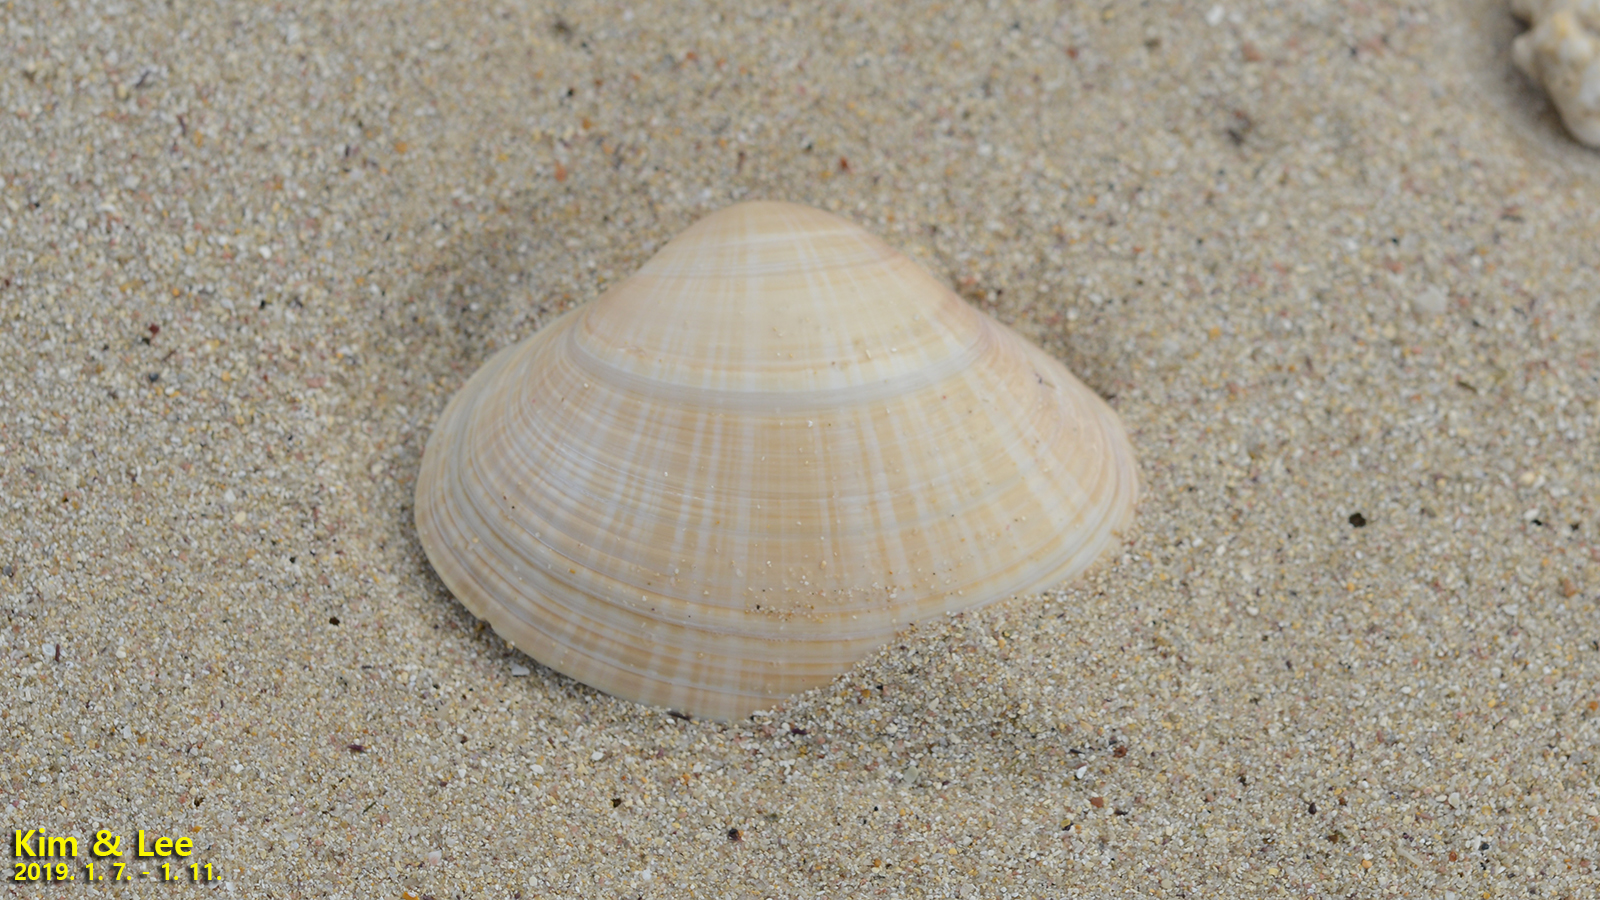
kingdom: Animalia
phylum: Mollusca
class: Bivalvia
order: Venerida
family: Mactridae
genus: Mactra
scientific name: Mactra chinensis
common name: Chinese surf clam
